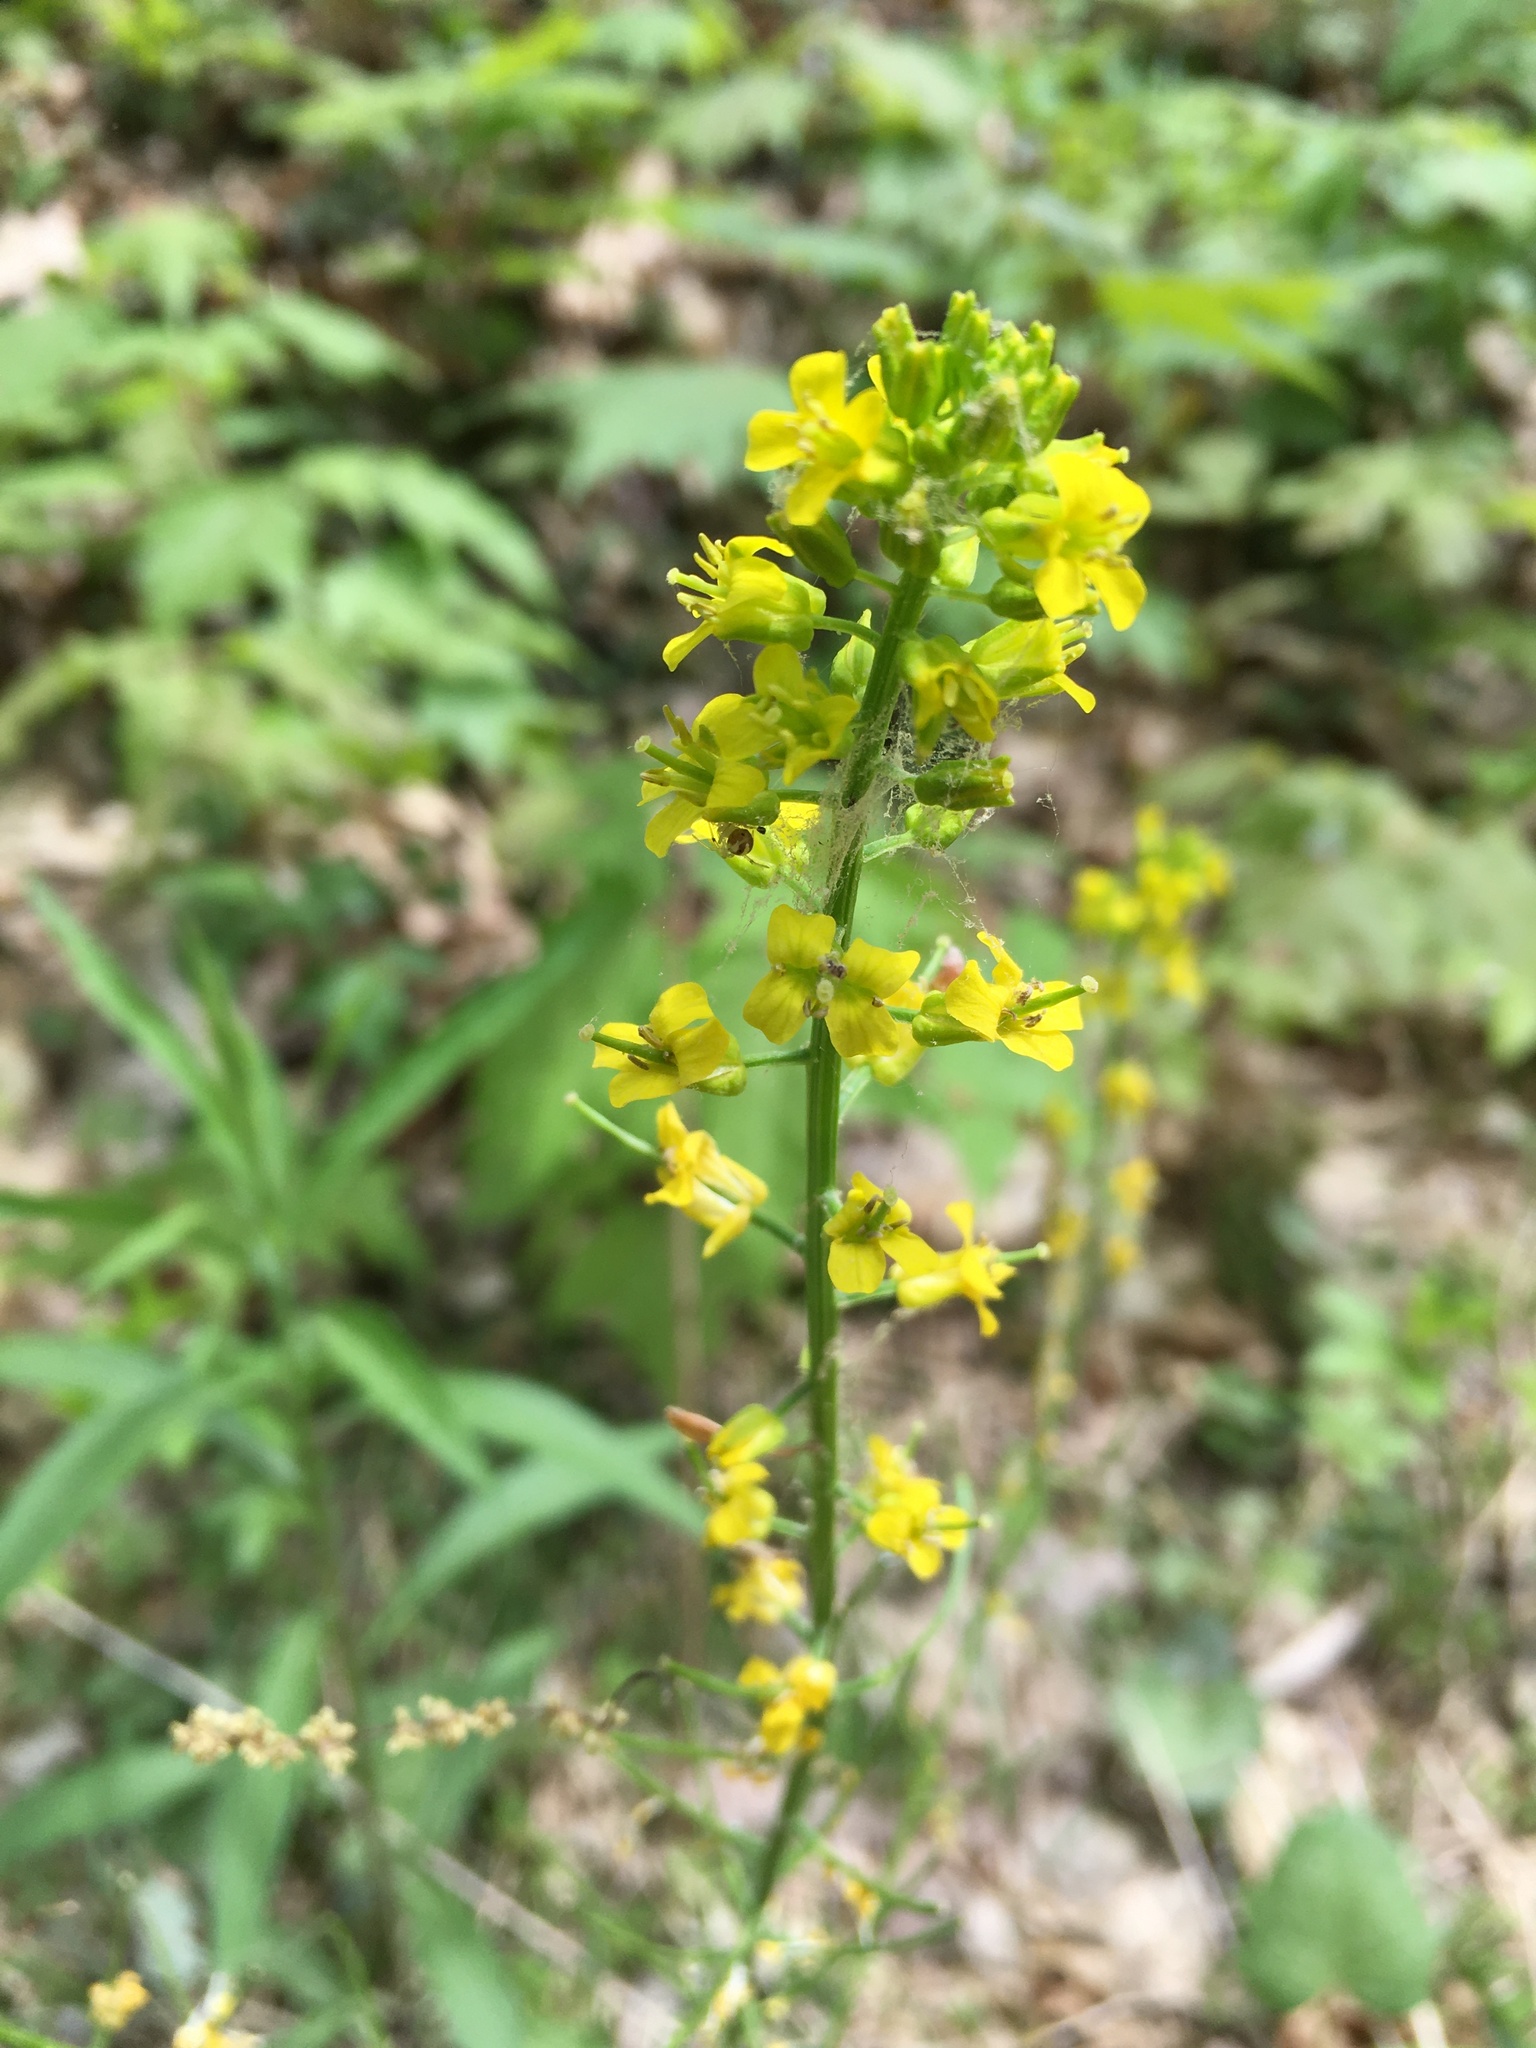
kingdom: Plantae
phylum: Tracheophyta
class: Magnoliopsida
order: Brassicales
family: Brassicaceae
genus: Barbarea
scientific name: Barbarea vulgaris
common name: Cressy-greens
